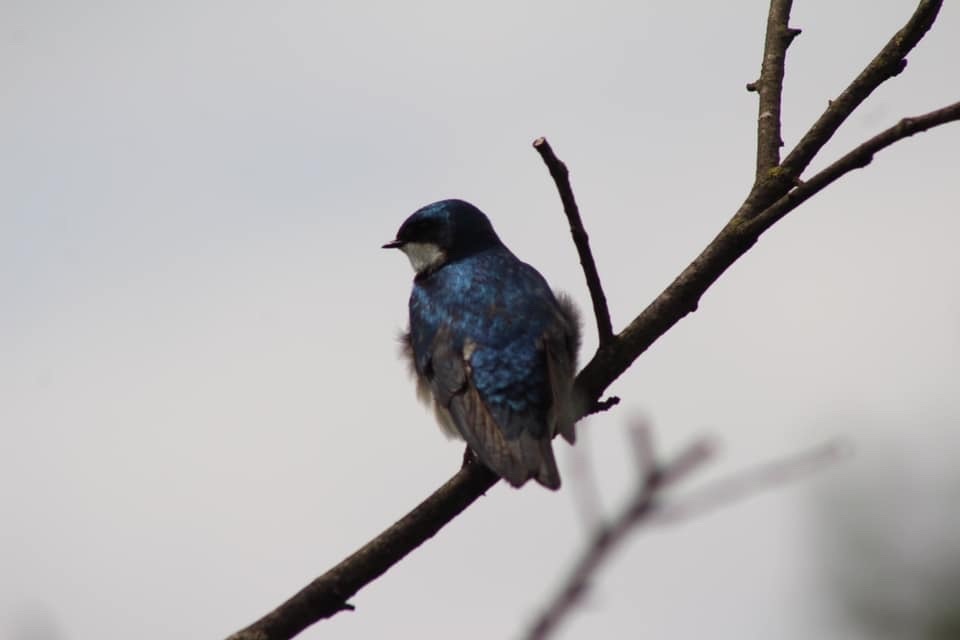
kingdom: Animalia
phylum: Chordata
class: Aves
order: Passeriformes
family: Hirundinidae
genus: Tachycineta
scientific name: Tachycineta bicolor
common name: Tree swallow
